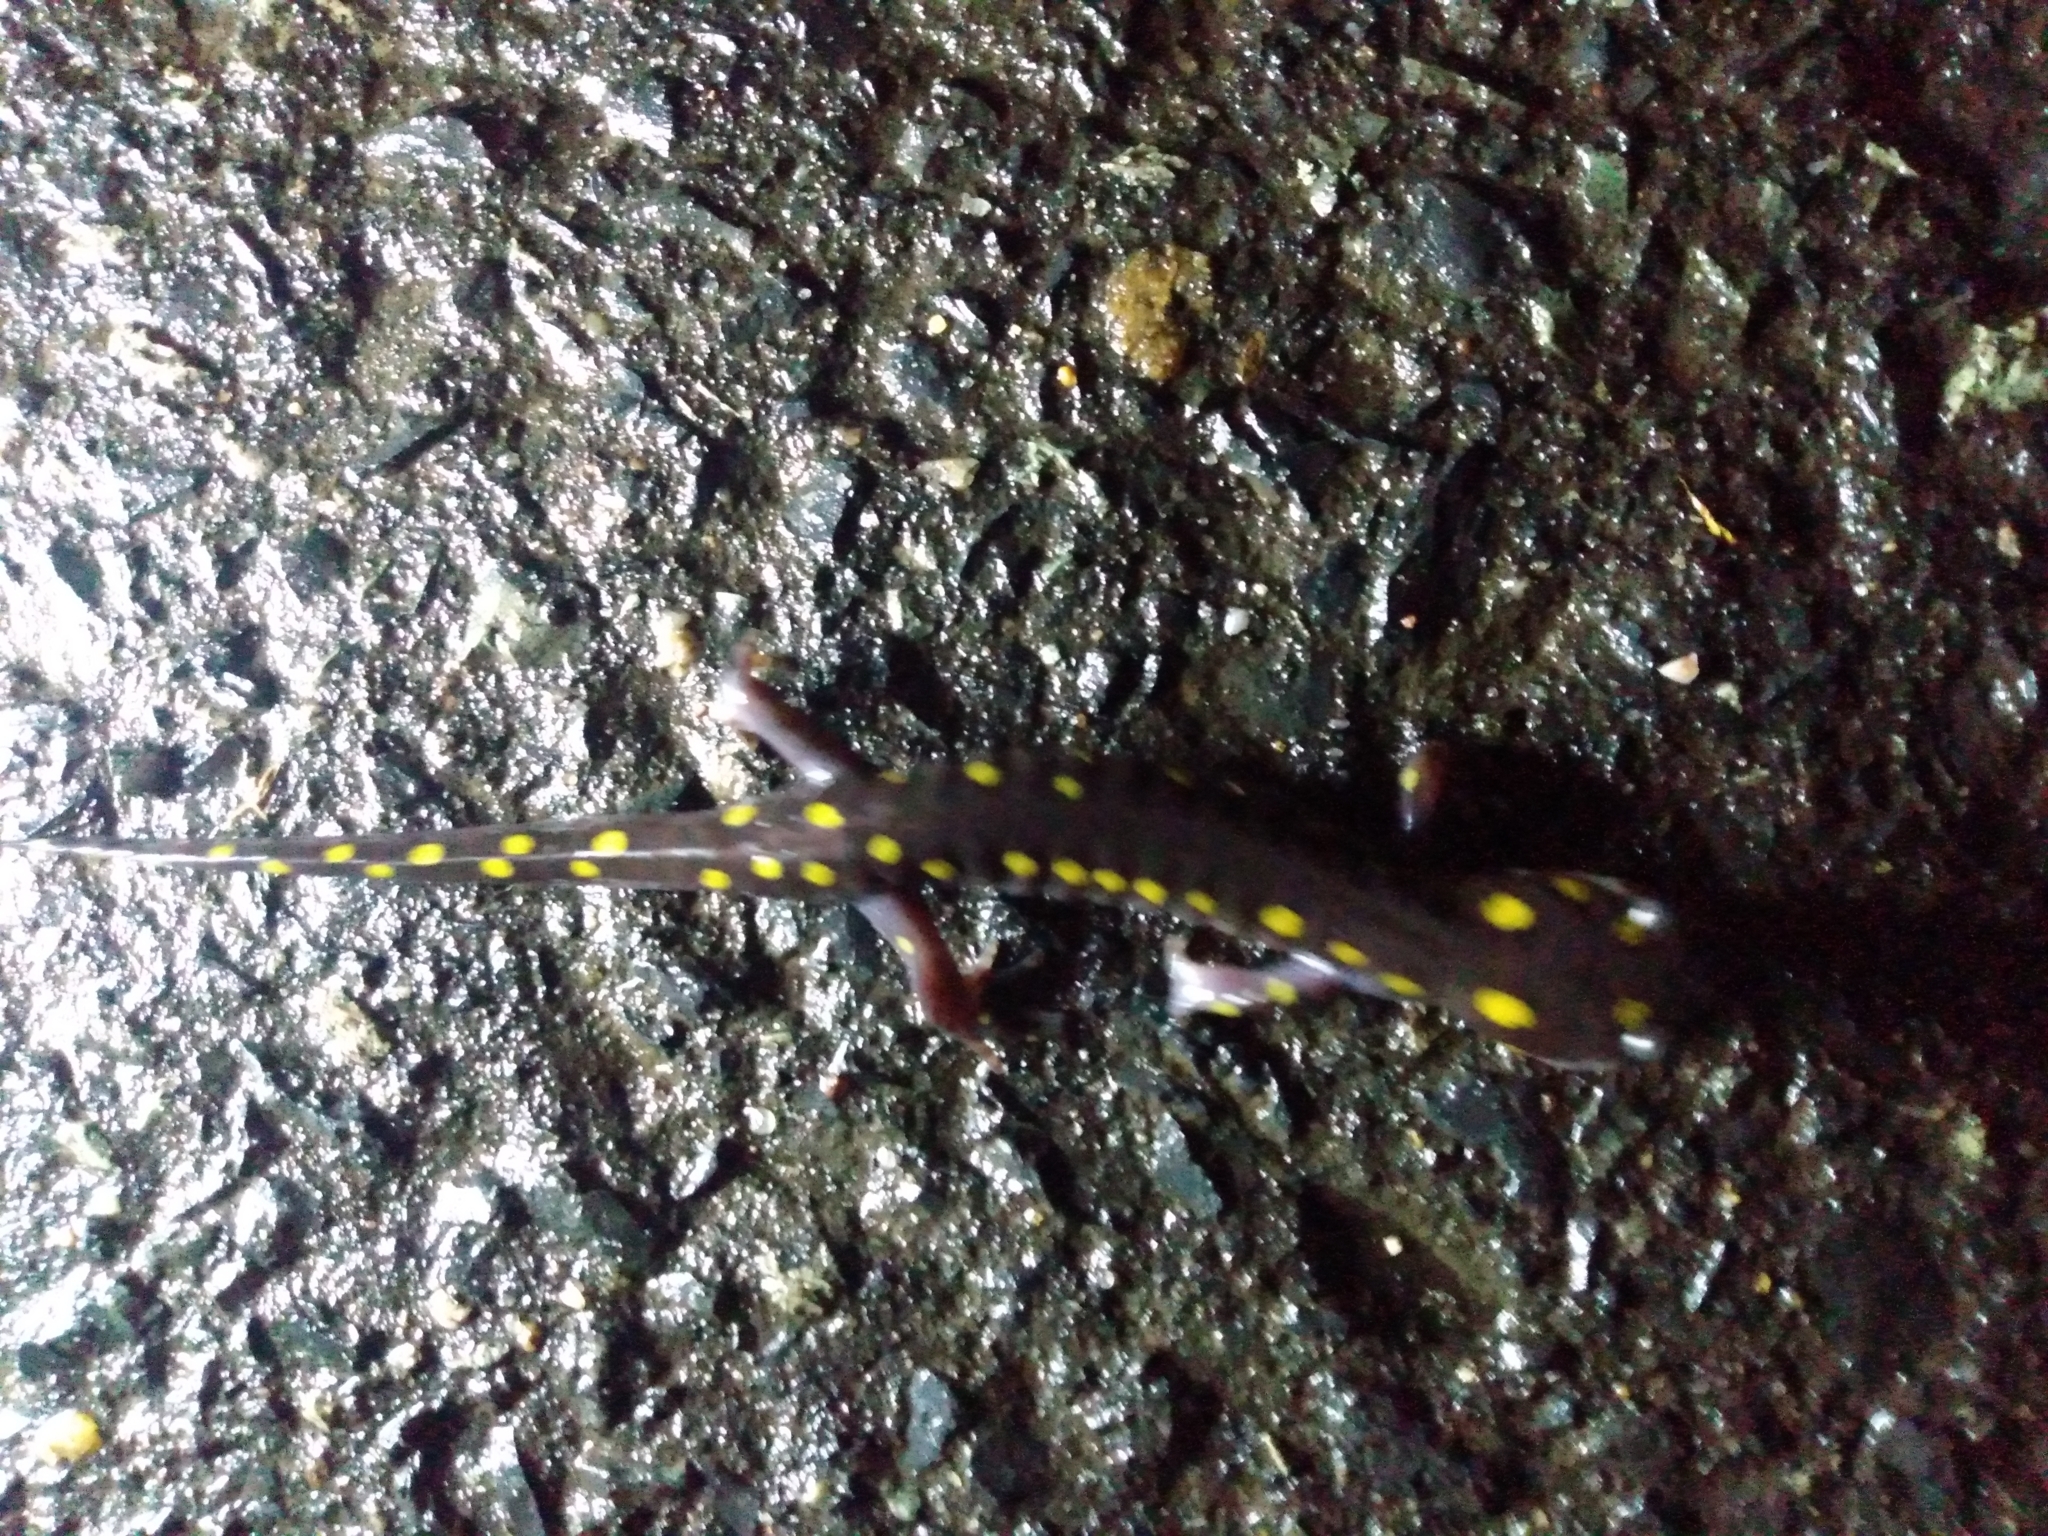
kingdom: Animalia
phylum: Chordata
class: Amphibia
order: Caudata
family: Ambystomatidae
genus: Ambystoma
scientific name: Ambystoma maculatum
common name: Spotted salamander
